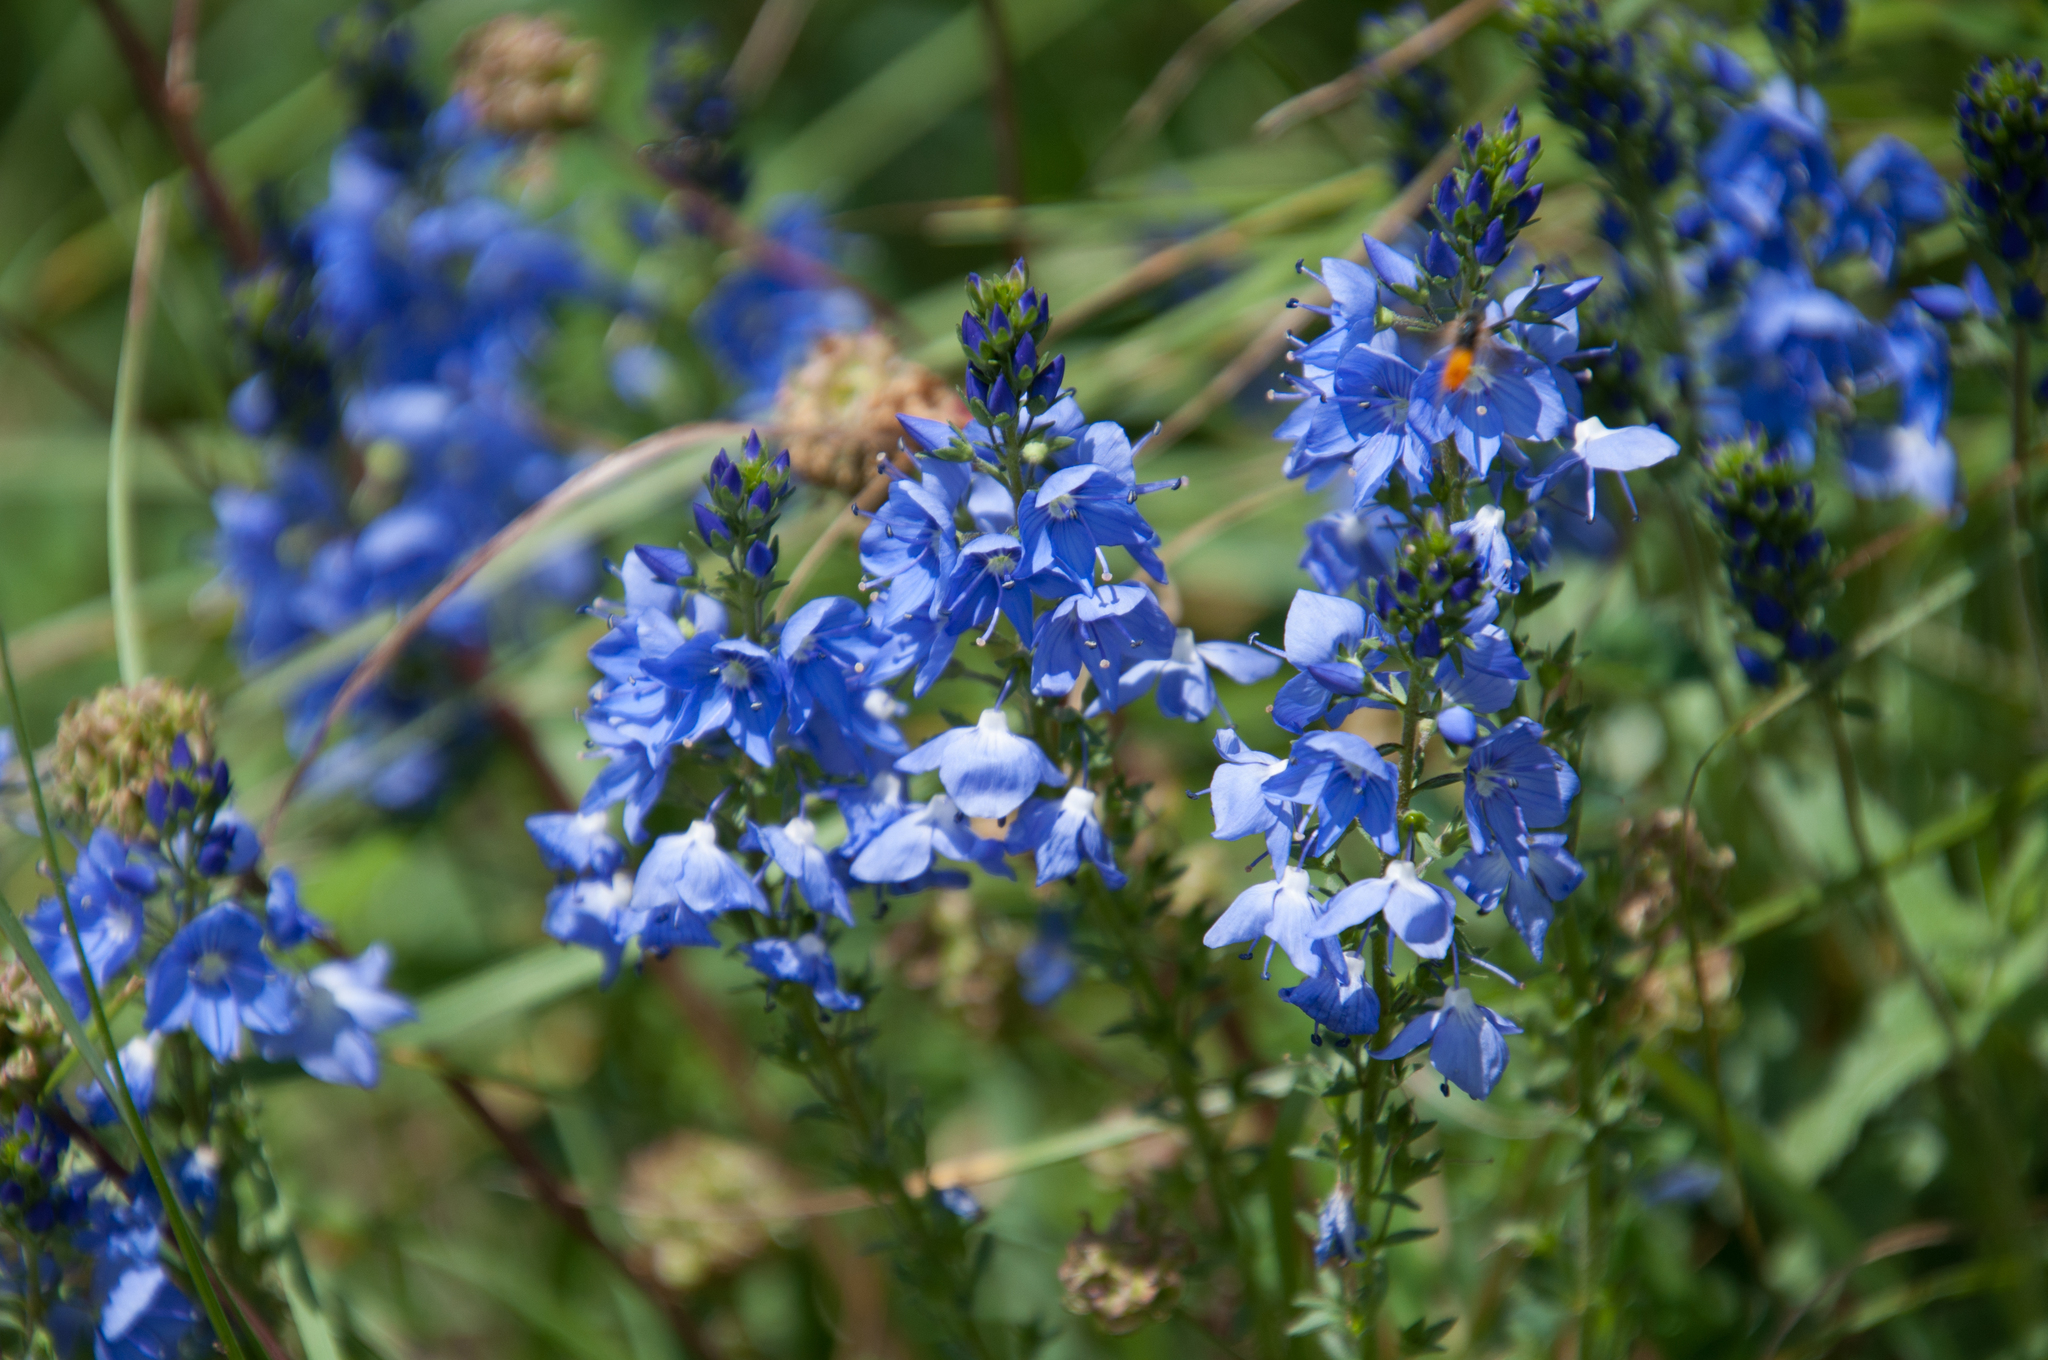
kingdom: Plantae
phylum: Tracheophyta
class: Magnoliopsida
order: Lamiales
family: Plantaginaceae
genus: Veronica
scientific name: Veronica teucrium
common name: Large speedwell
